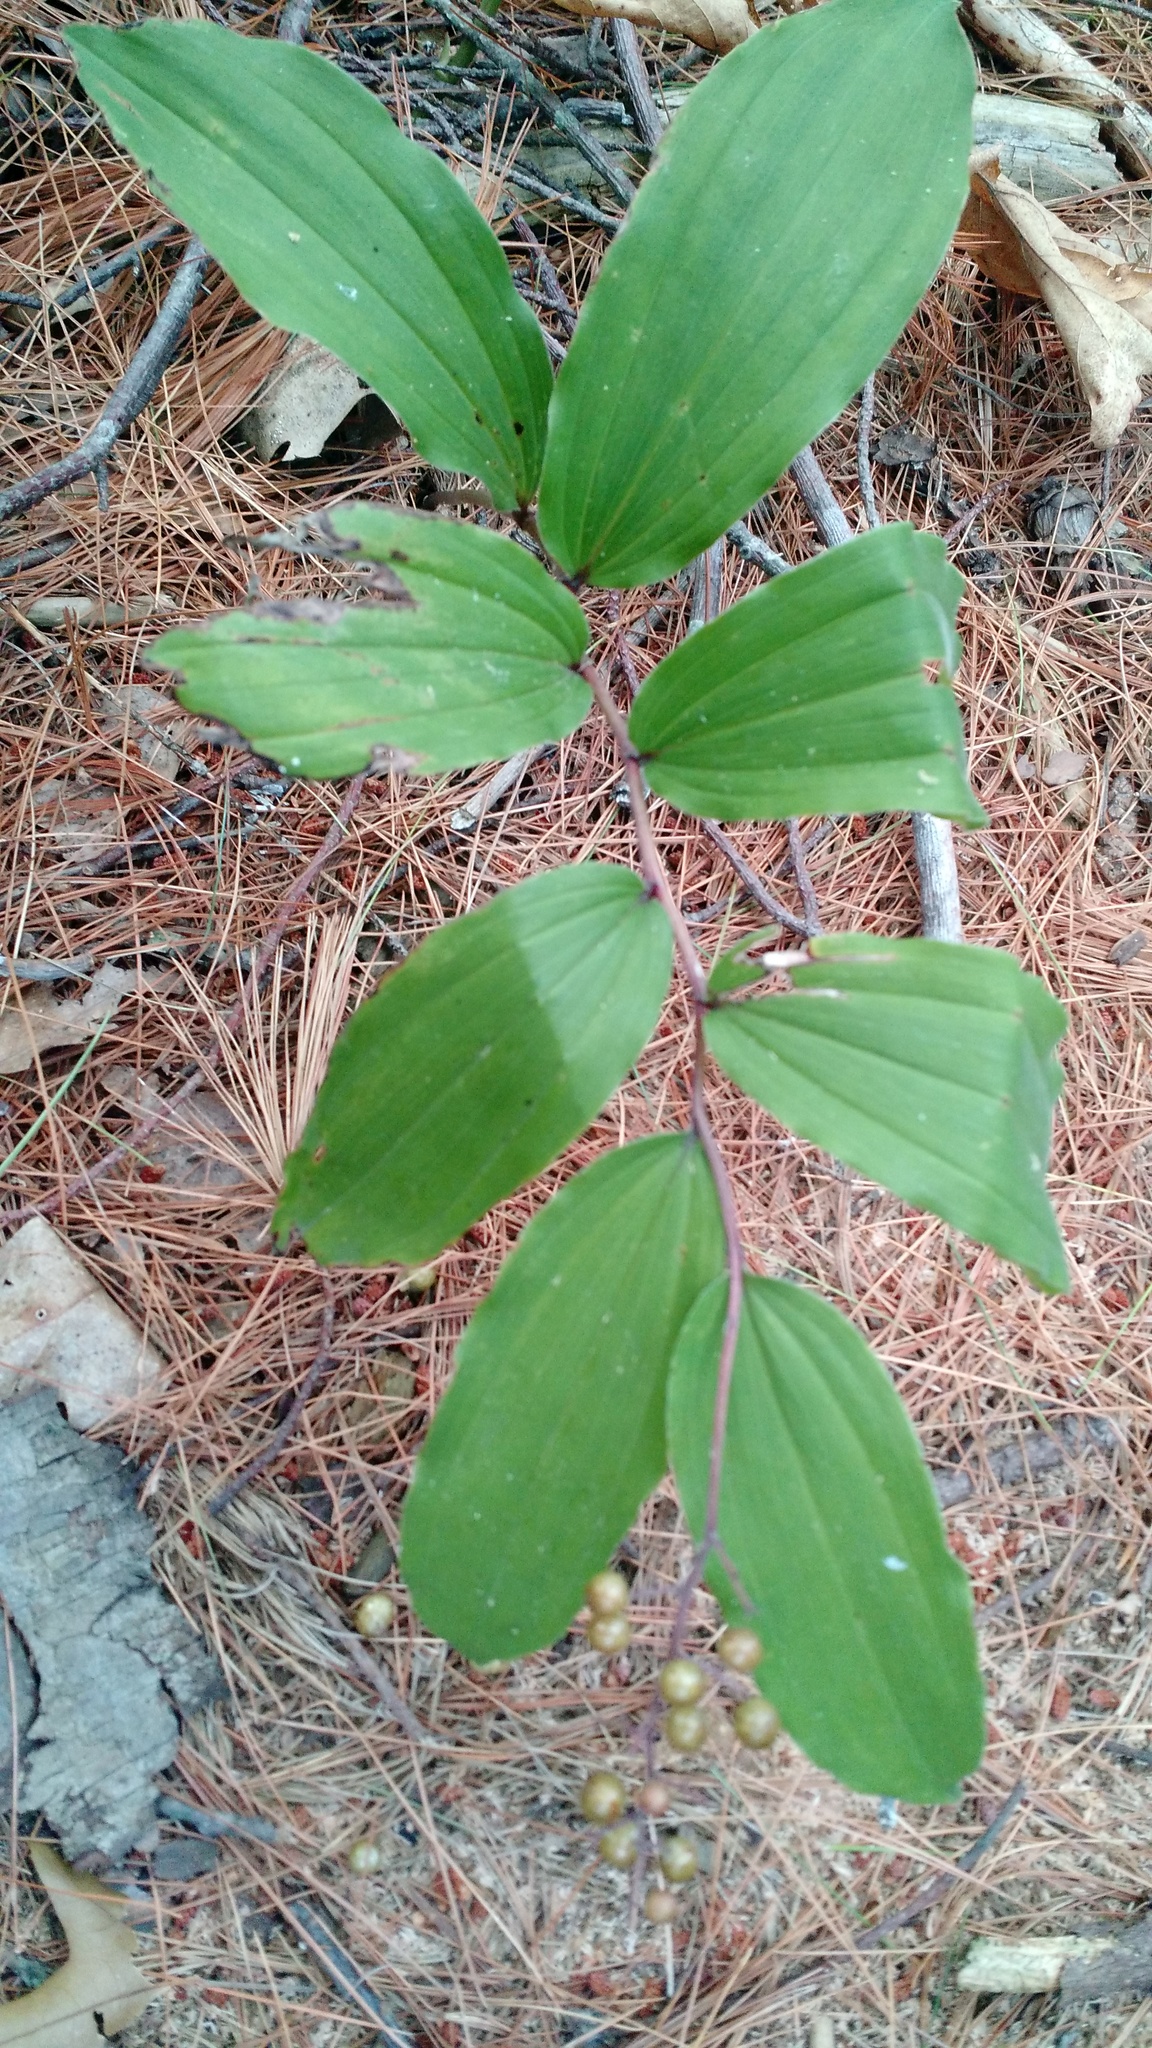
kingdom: Plantae
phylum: Tracheophyta
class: Liliopsida
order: Asparagales
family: Asparagaceae
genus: Maianthemum
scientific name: Maianthemum racemosum
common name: False spikenard
